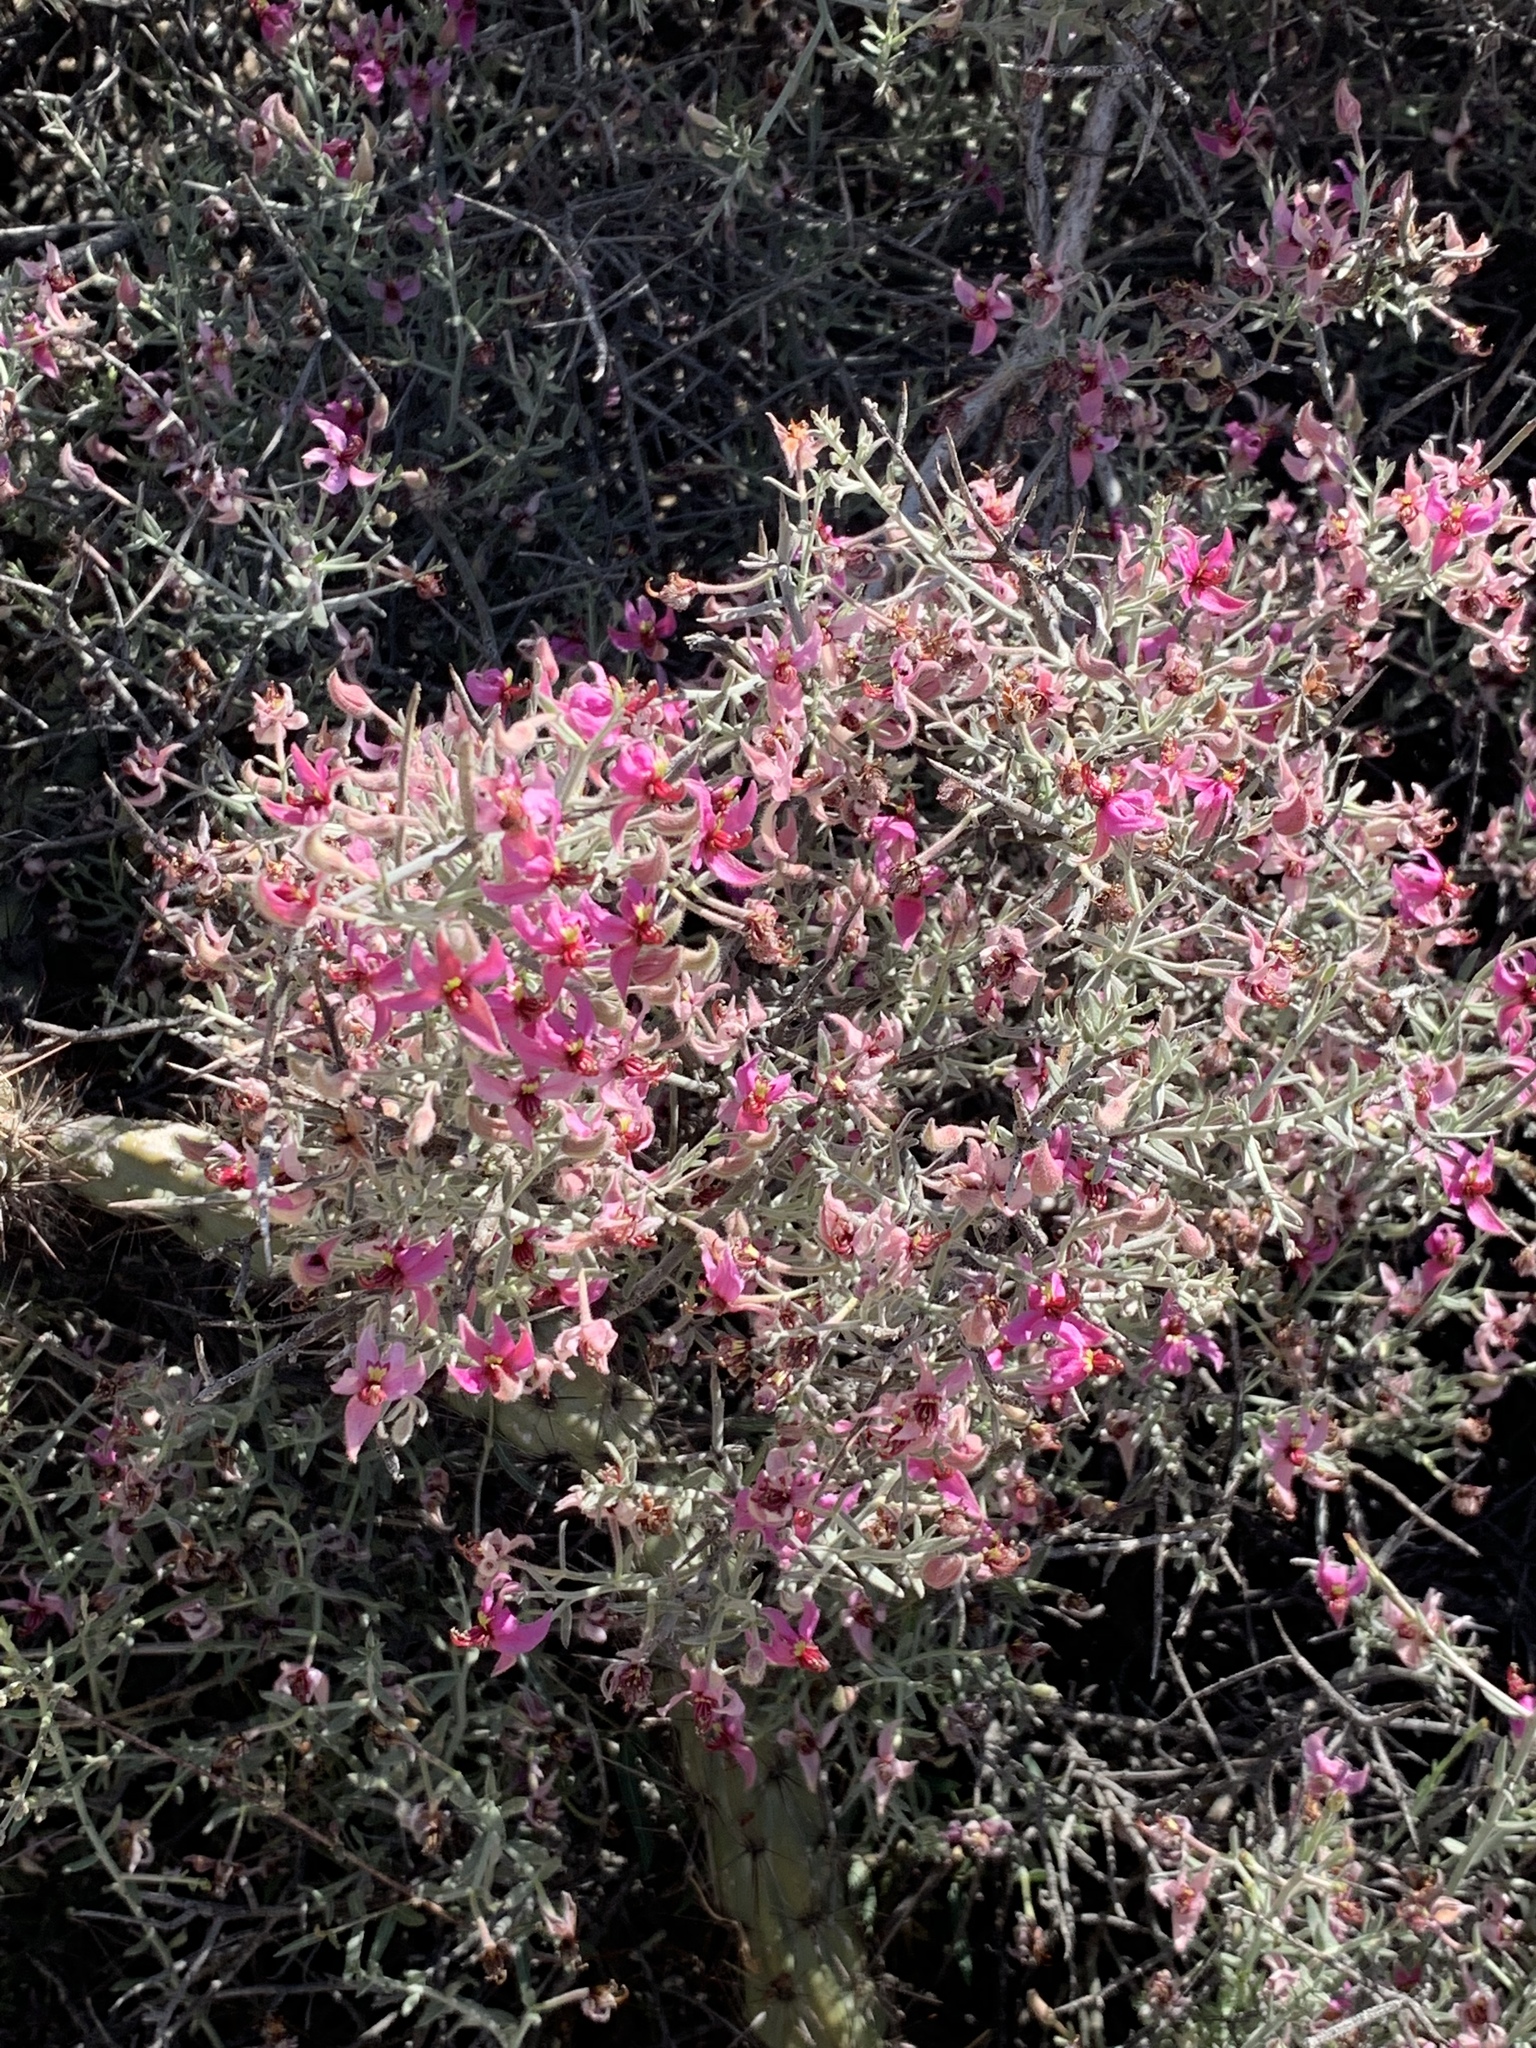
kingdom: Plantae
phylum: Tracheophyta
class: Magnoliopsida
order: Zygophyllales
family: Krameriaceae
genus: Krameria
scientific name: Krameria erecta
